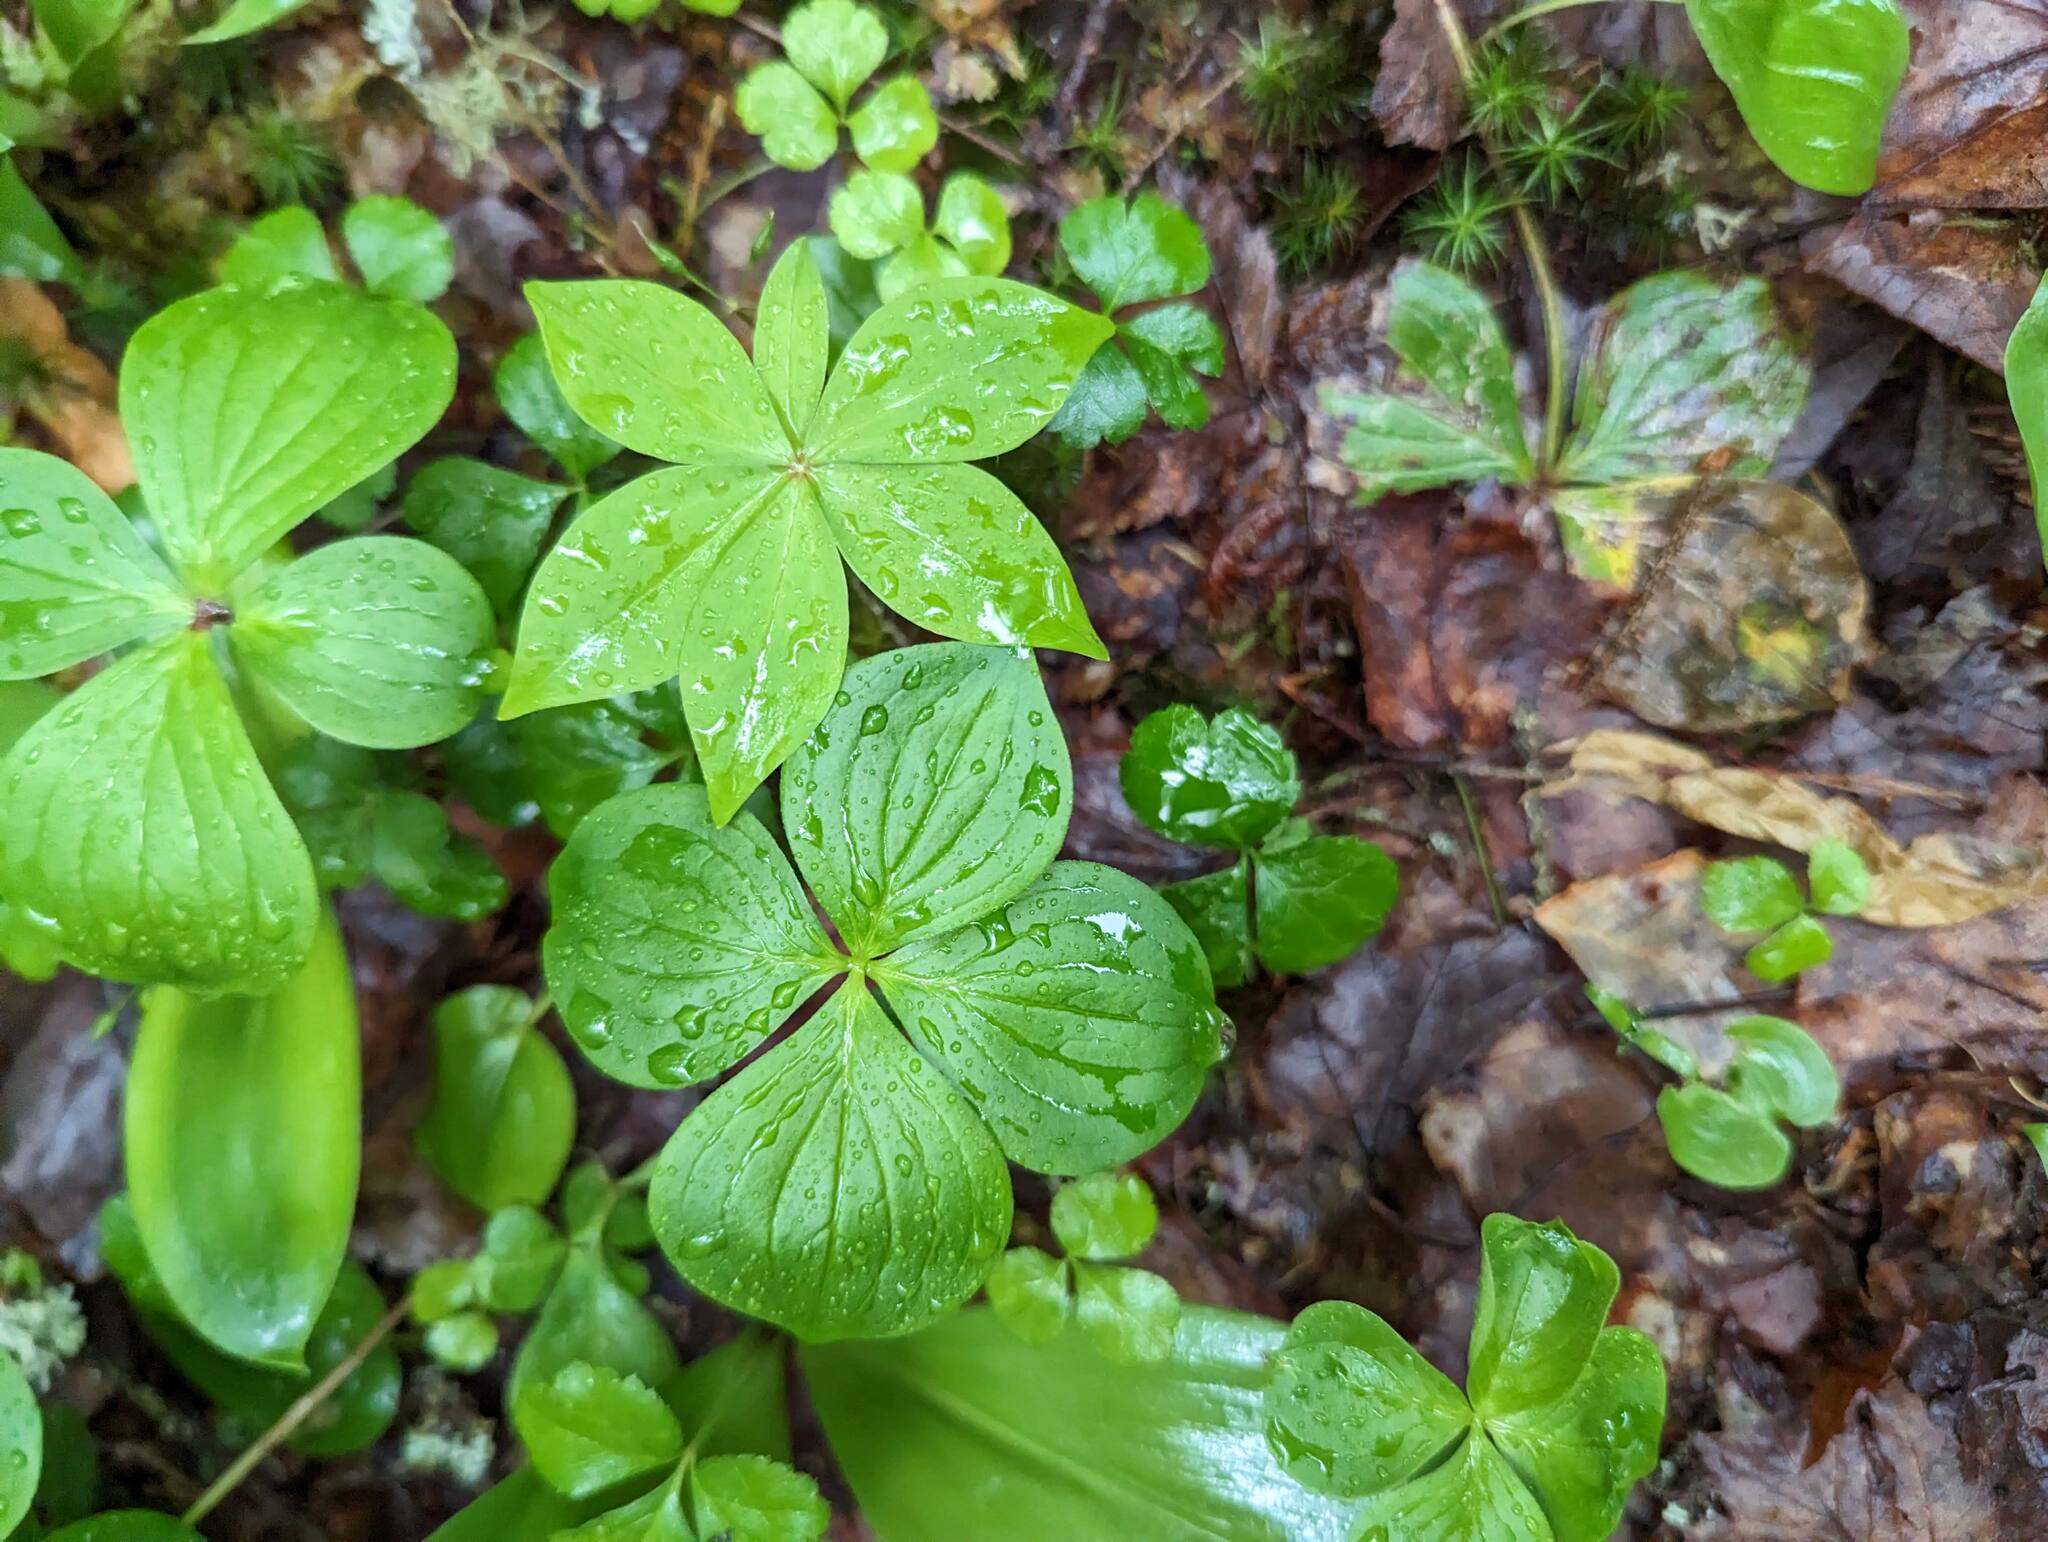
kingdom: Plantae
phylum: Tracheophyta
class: Liliopsida
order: Liliales
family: Liliaceae
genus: Medeola
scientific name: Medeola virginiana
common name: Indian cucumber-root
